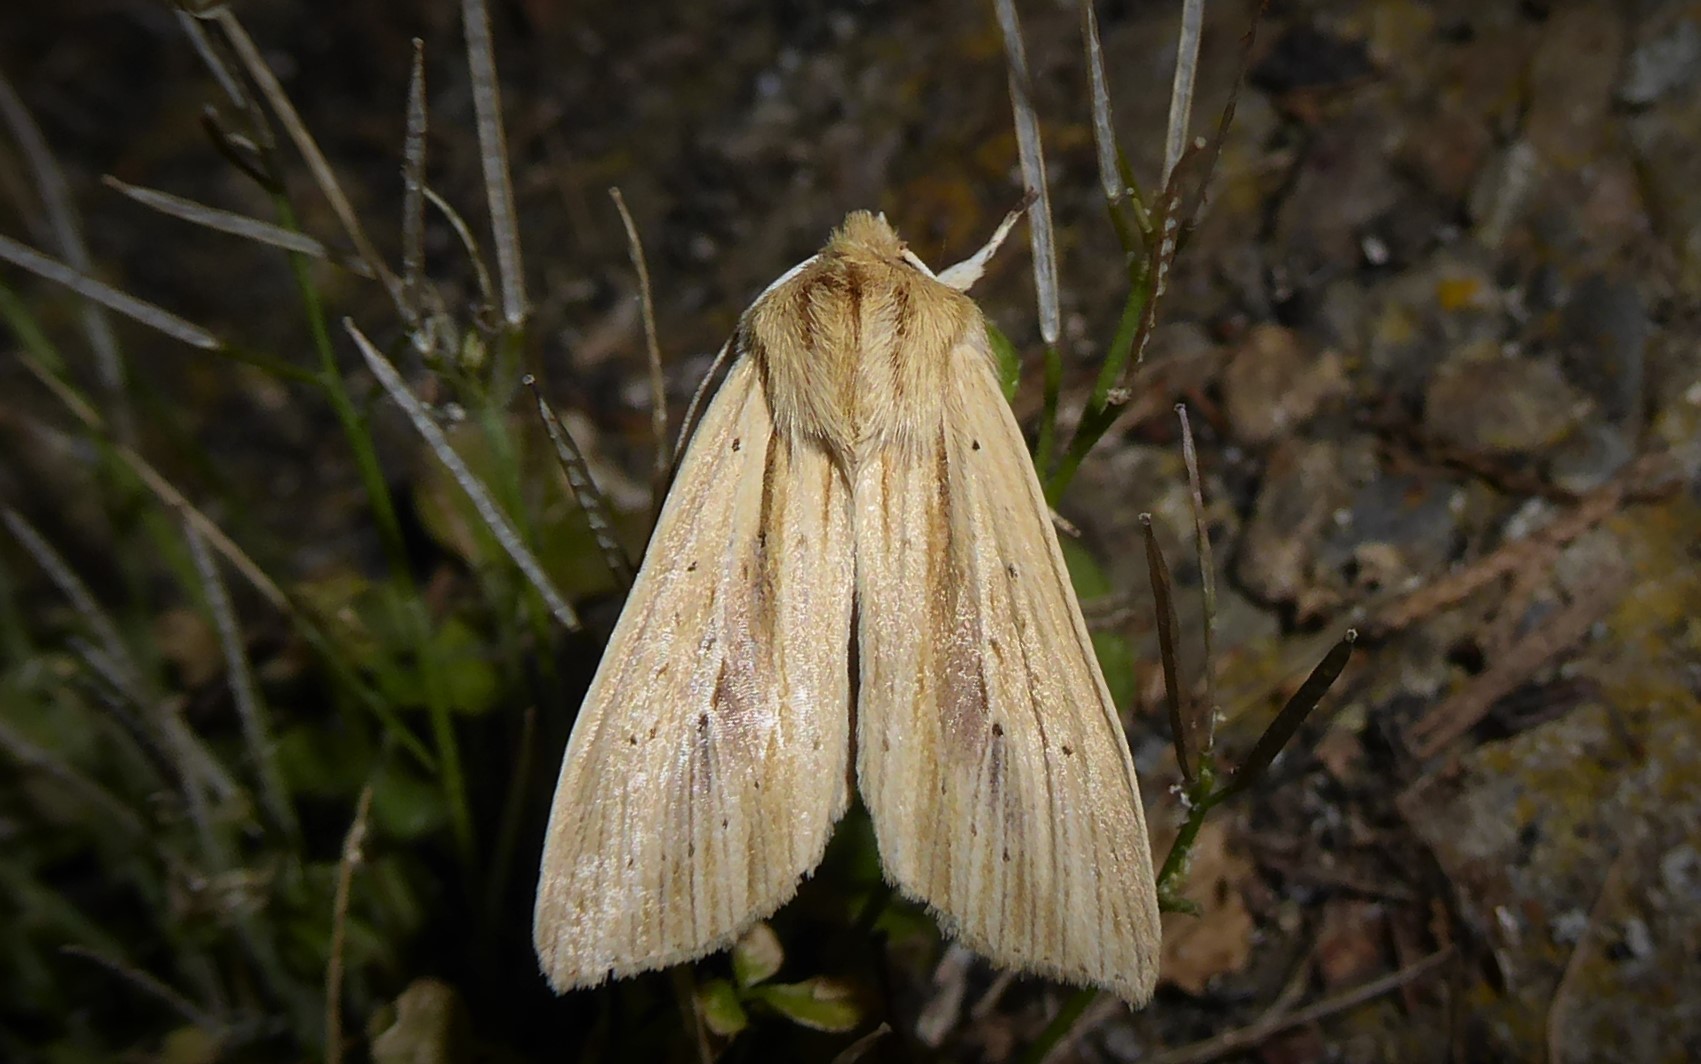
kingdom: Animalia
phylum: Arthropoda
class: Insecta
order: Lepidoptera
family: Noctuidae
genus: Ichneutica
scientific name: Ichneutica semivittata
